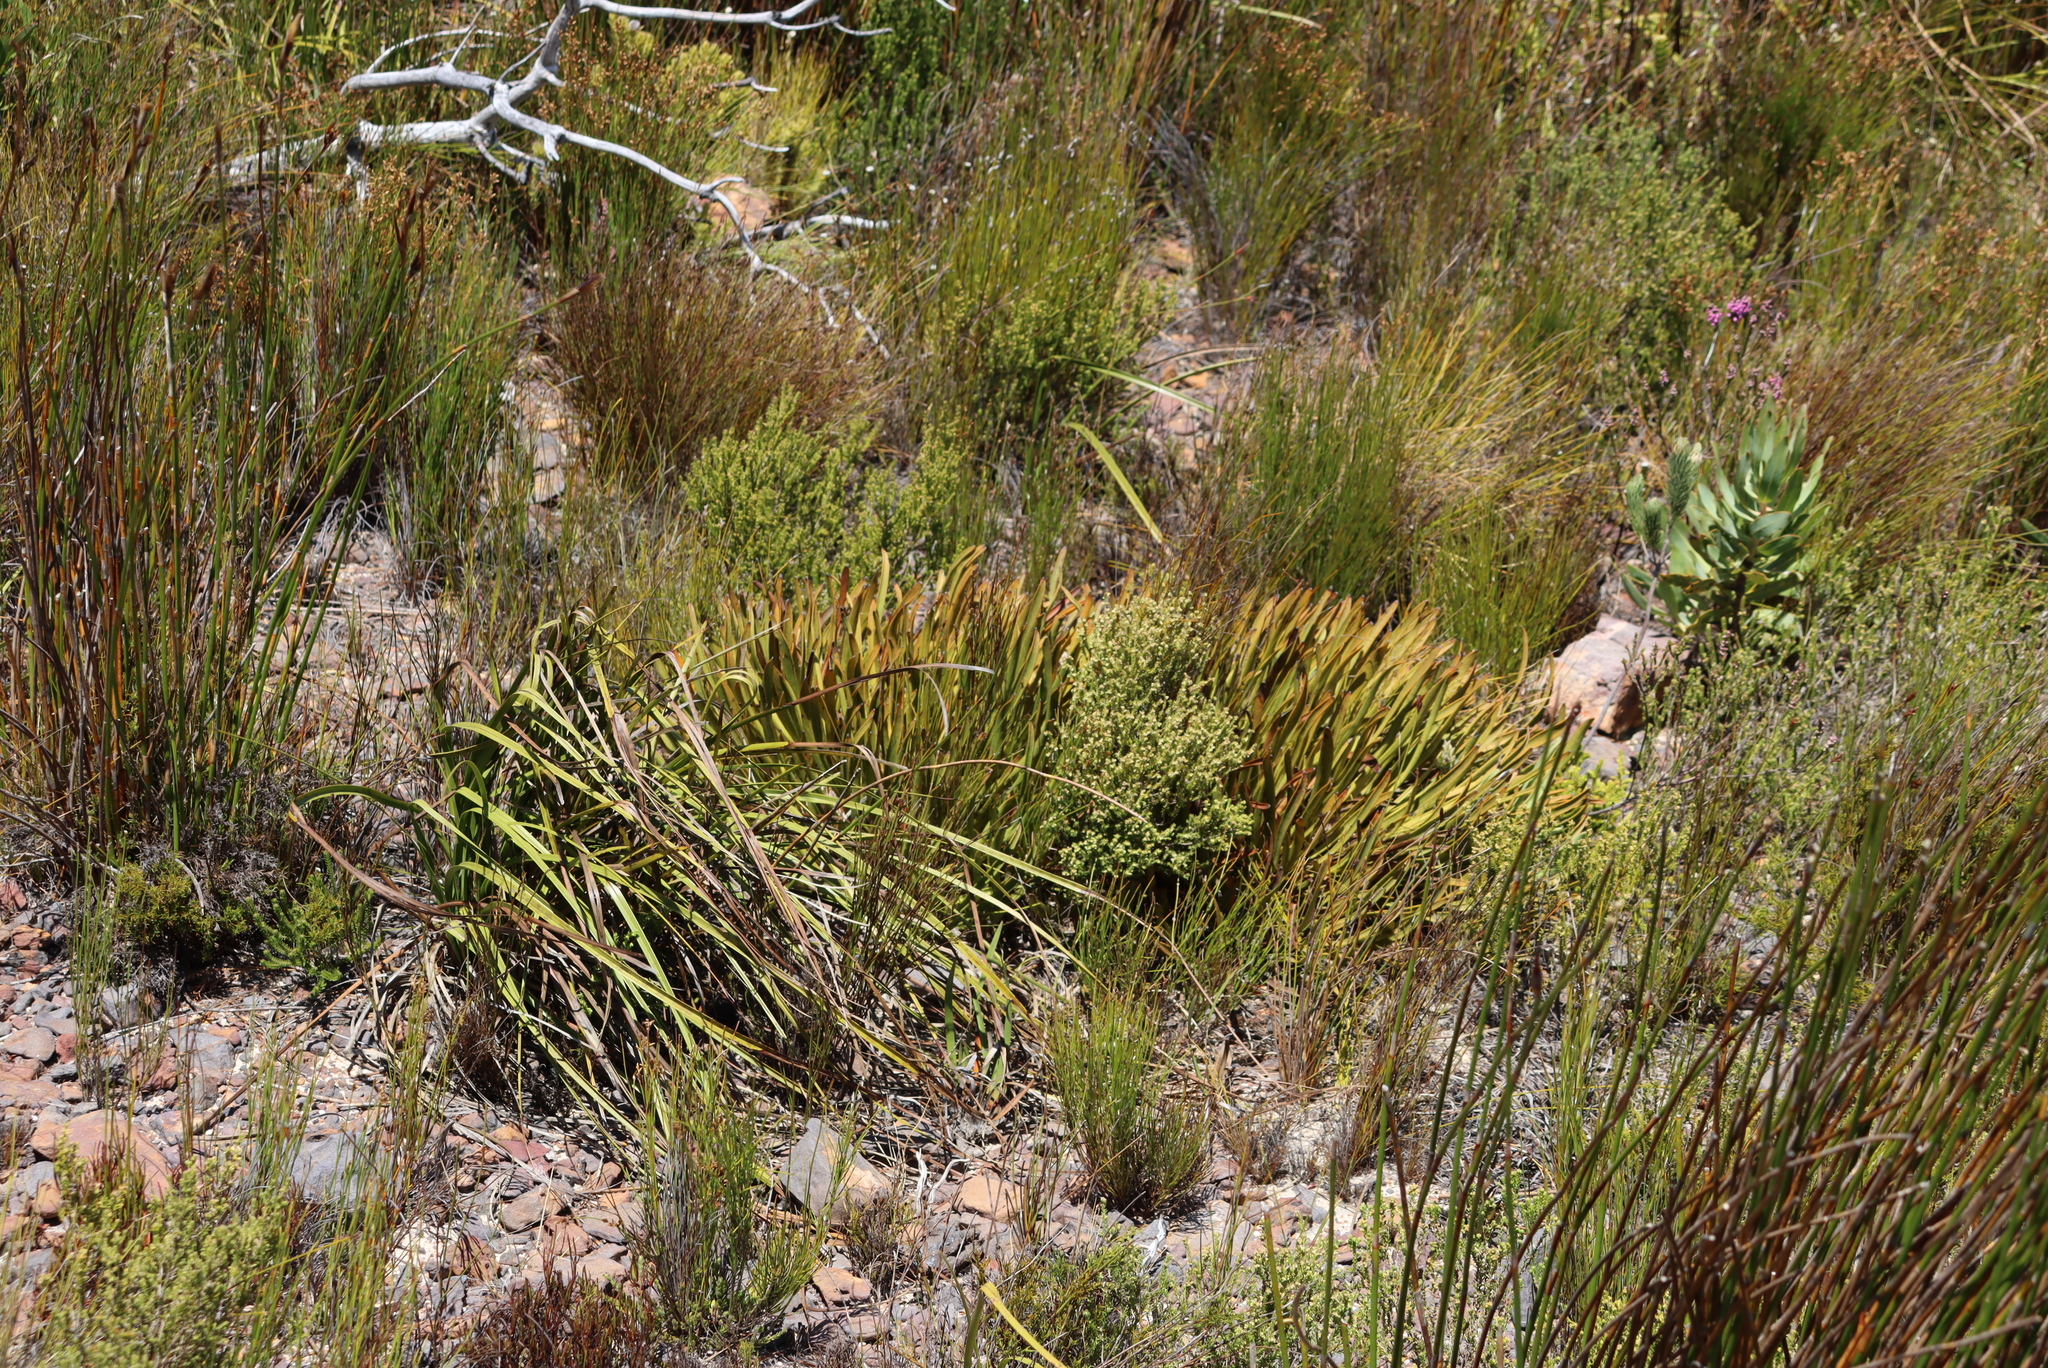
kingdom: Plantae
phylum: Tracheophyta
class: Magnoliopsida
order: Proteales
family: Proteaceae
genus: Protea
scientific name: Protea scabra
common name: Sandpaper-leaf sugarbush
